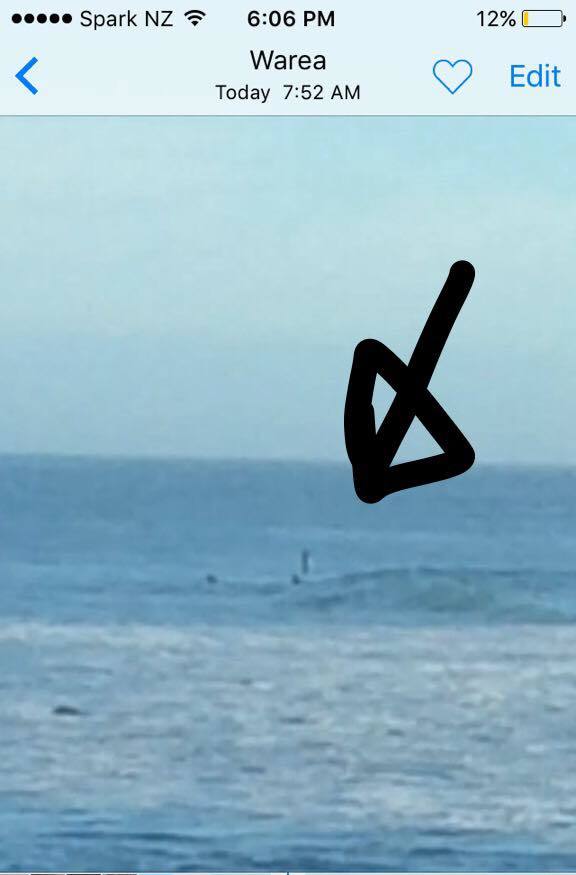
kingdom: Animalia
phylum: Chordata
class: Mammalia
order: Cetacea
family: Delphinidae
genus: Orcinus
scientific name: Orcinus orca
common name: Killer whale
